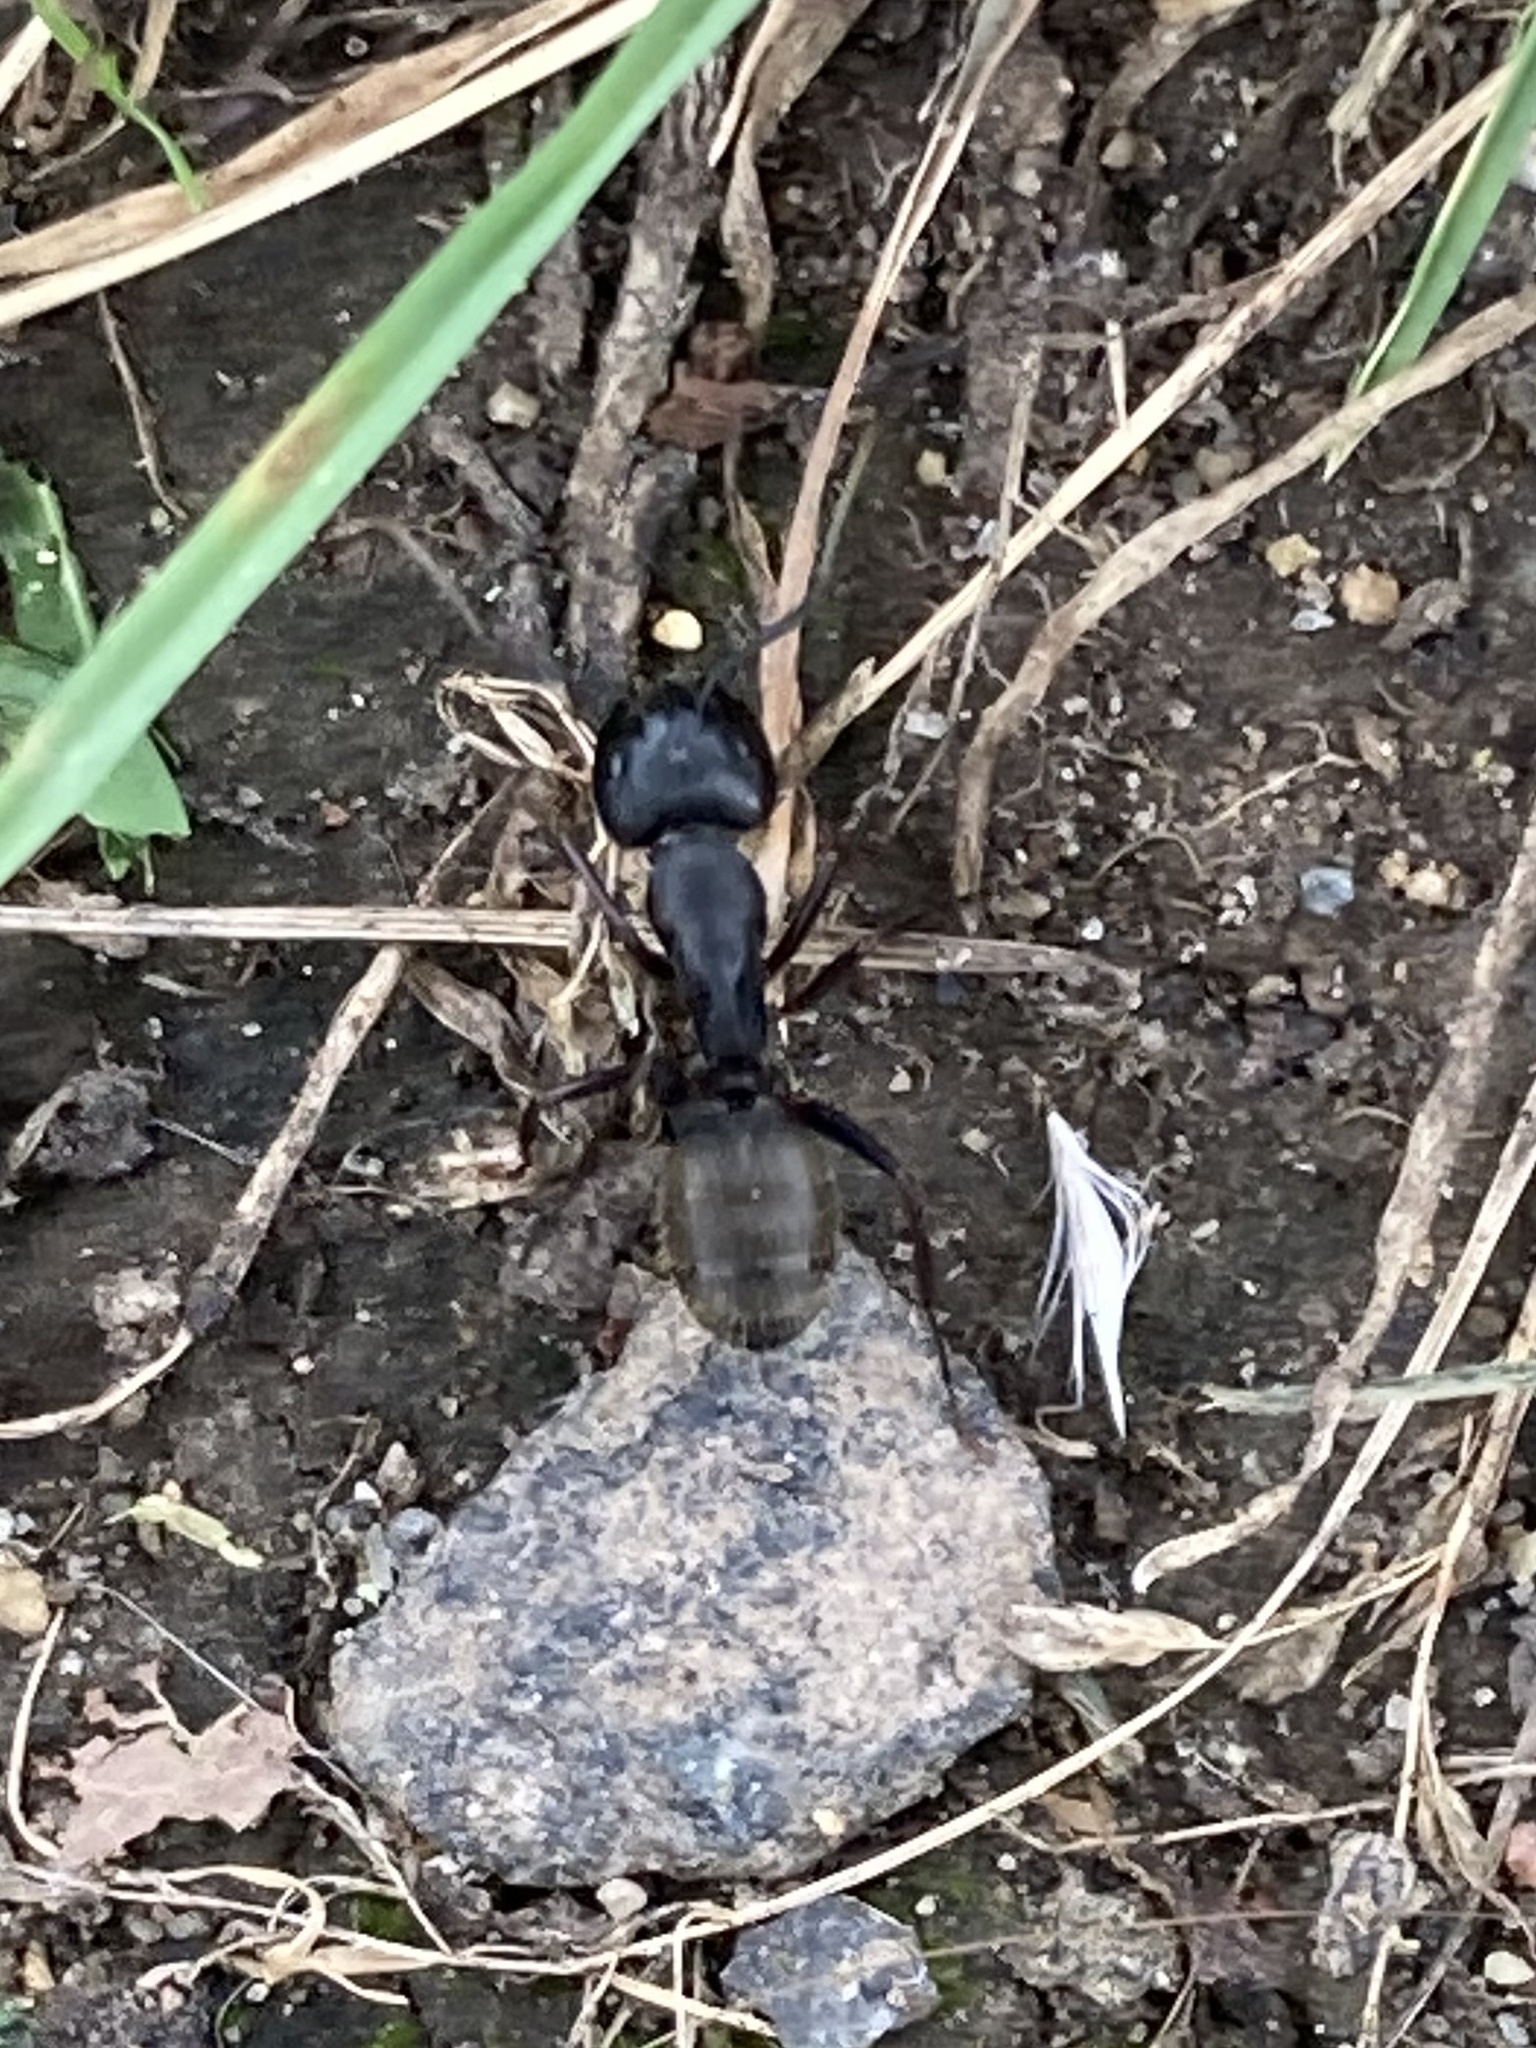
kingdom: Animalia
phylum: Arthropoda
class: Insecta
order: Hymenoptera
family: Formicidae
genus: Camponotus
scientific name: Camponotus pennsylvanicus
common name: Black carpenter ant
